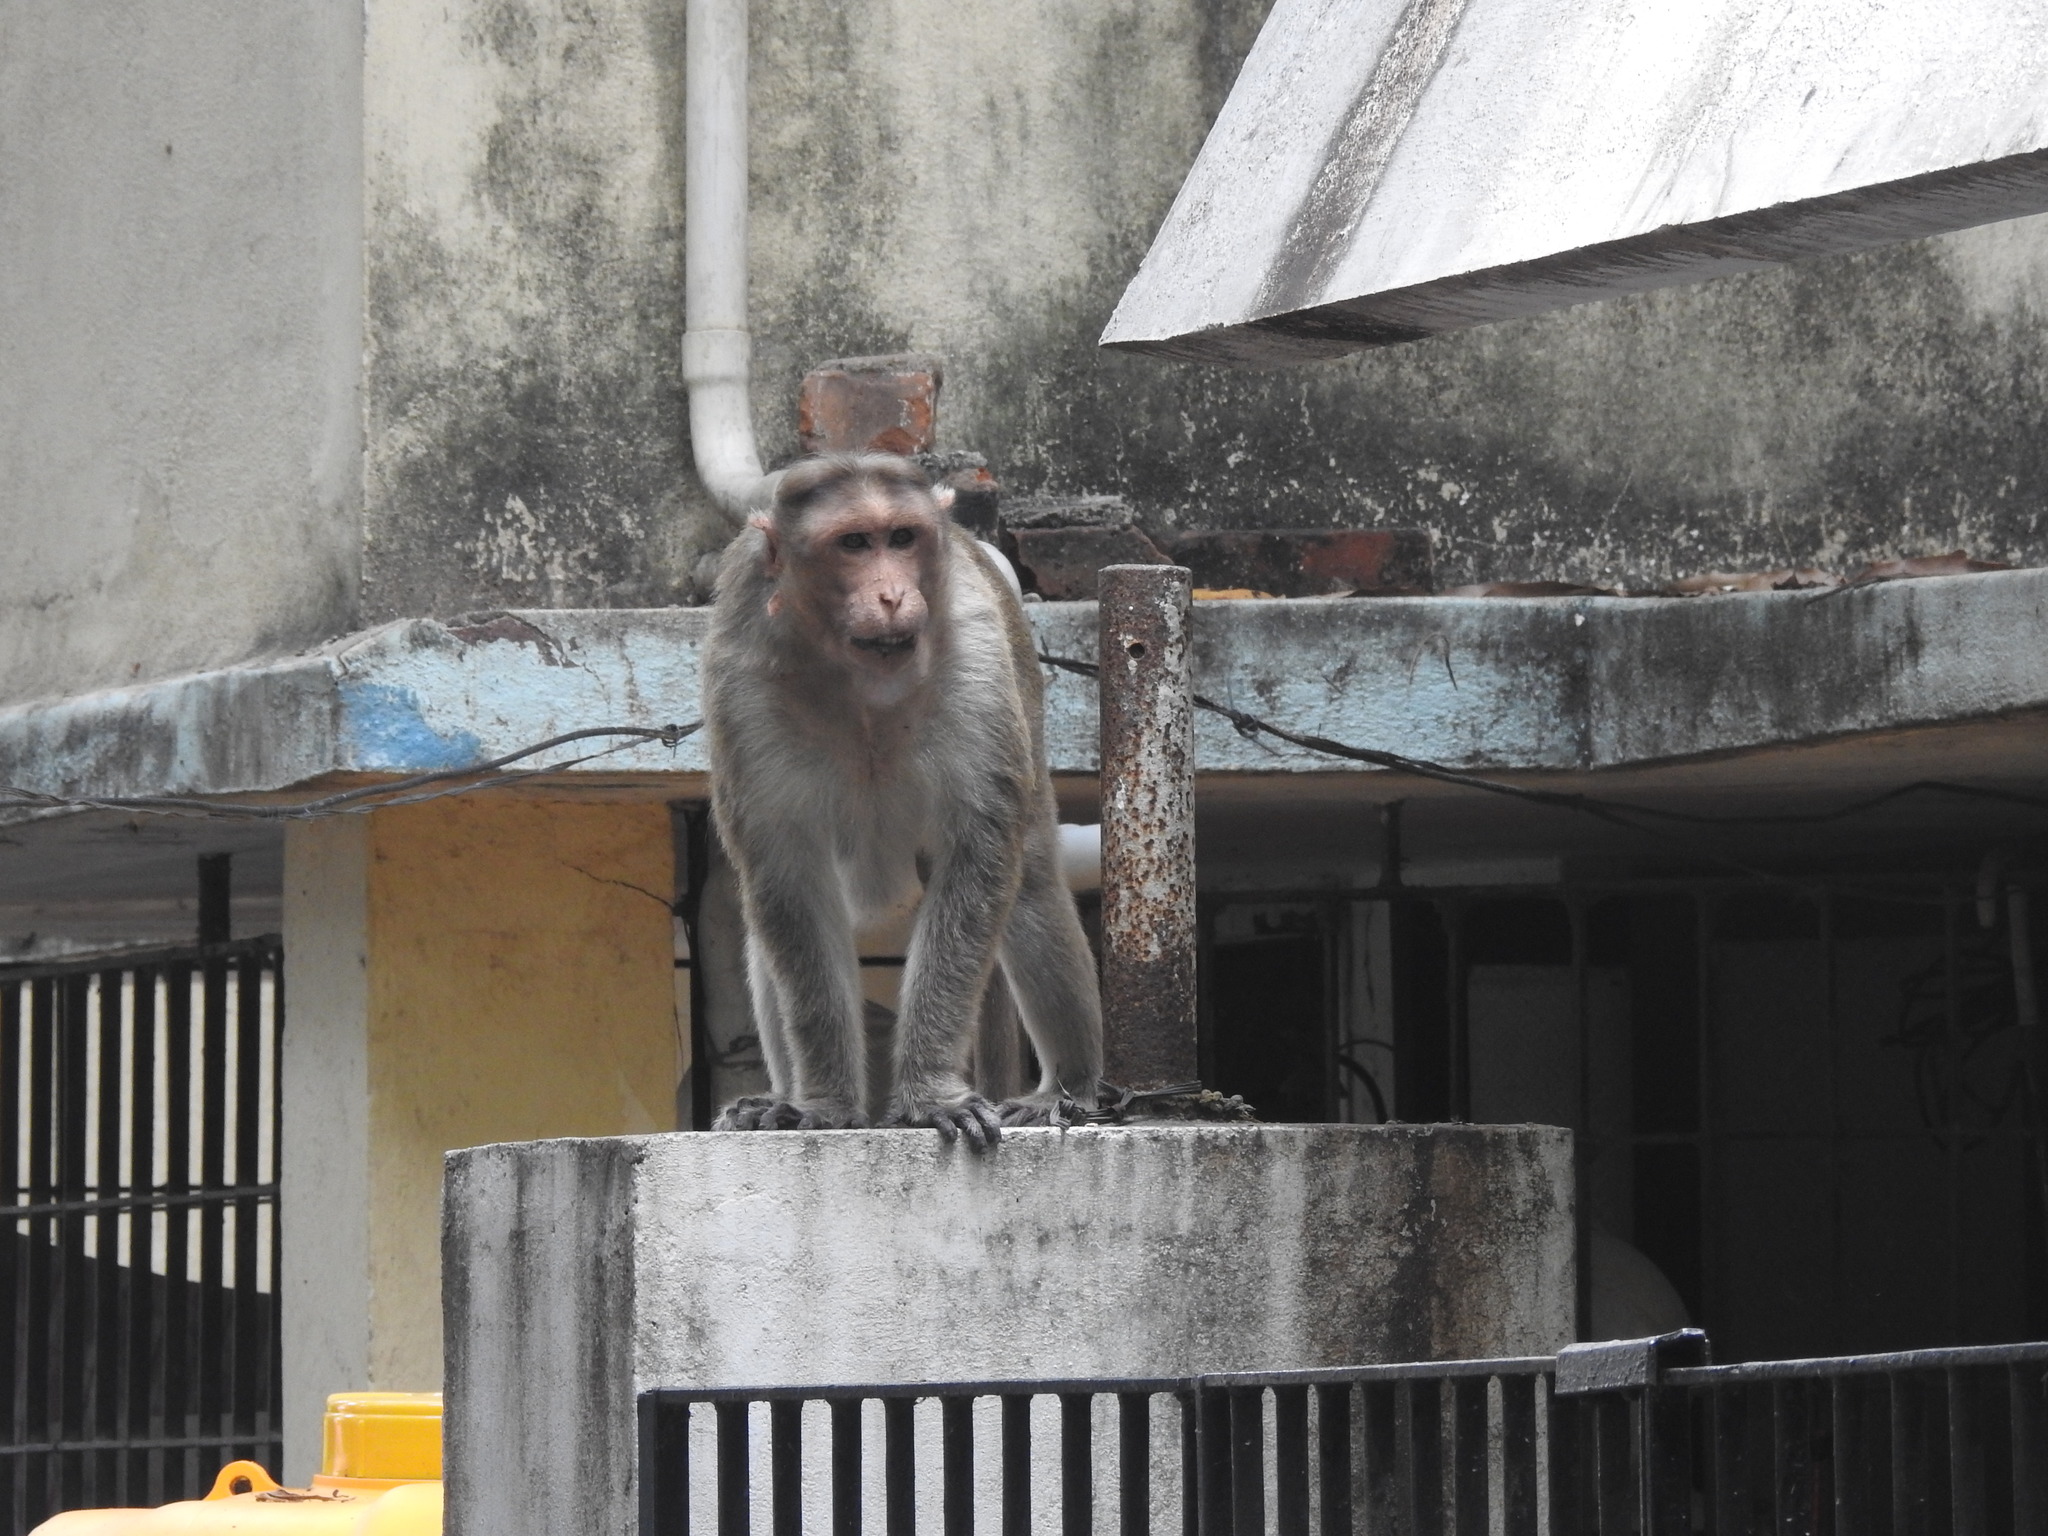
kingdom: Animalia
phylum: Chordata
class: Mammalia
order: Primates
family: Cercopithecidae
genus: Macaca
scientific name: Macaca radiata
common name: Bonnet macaque
